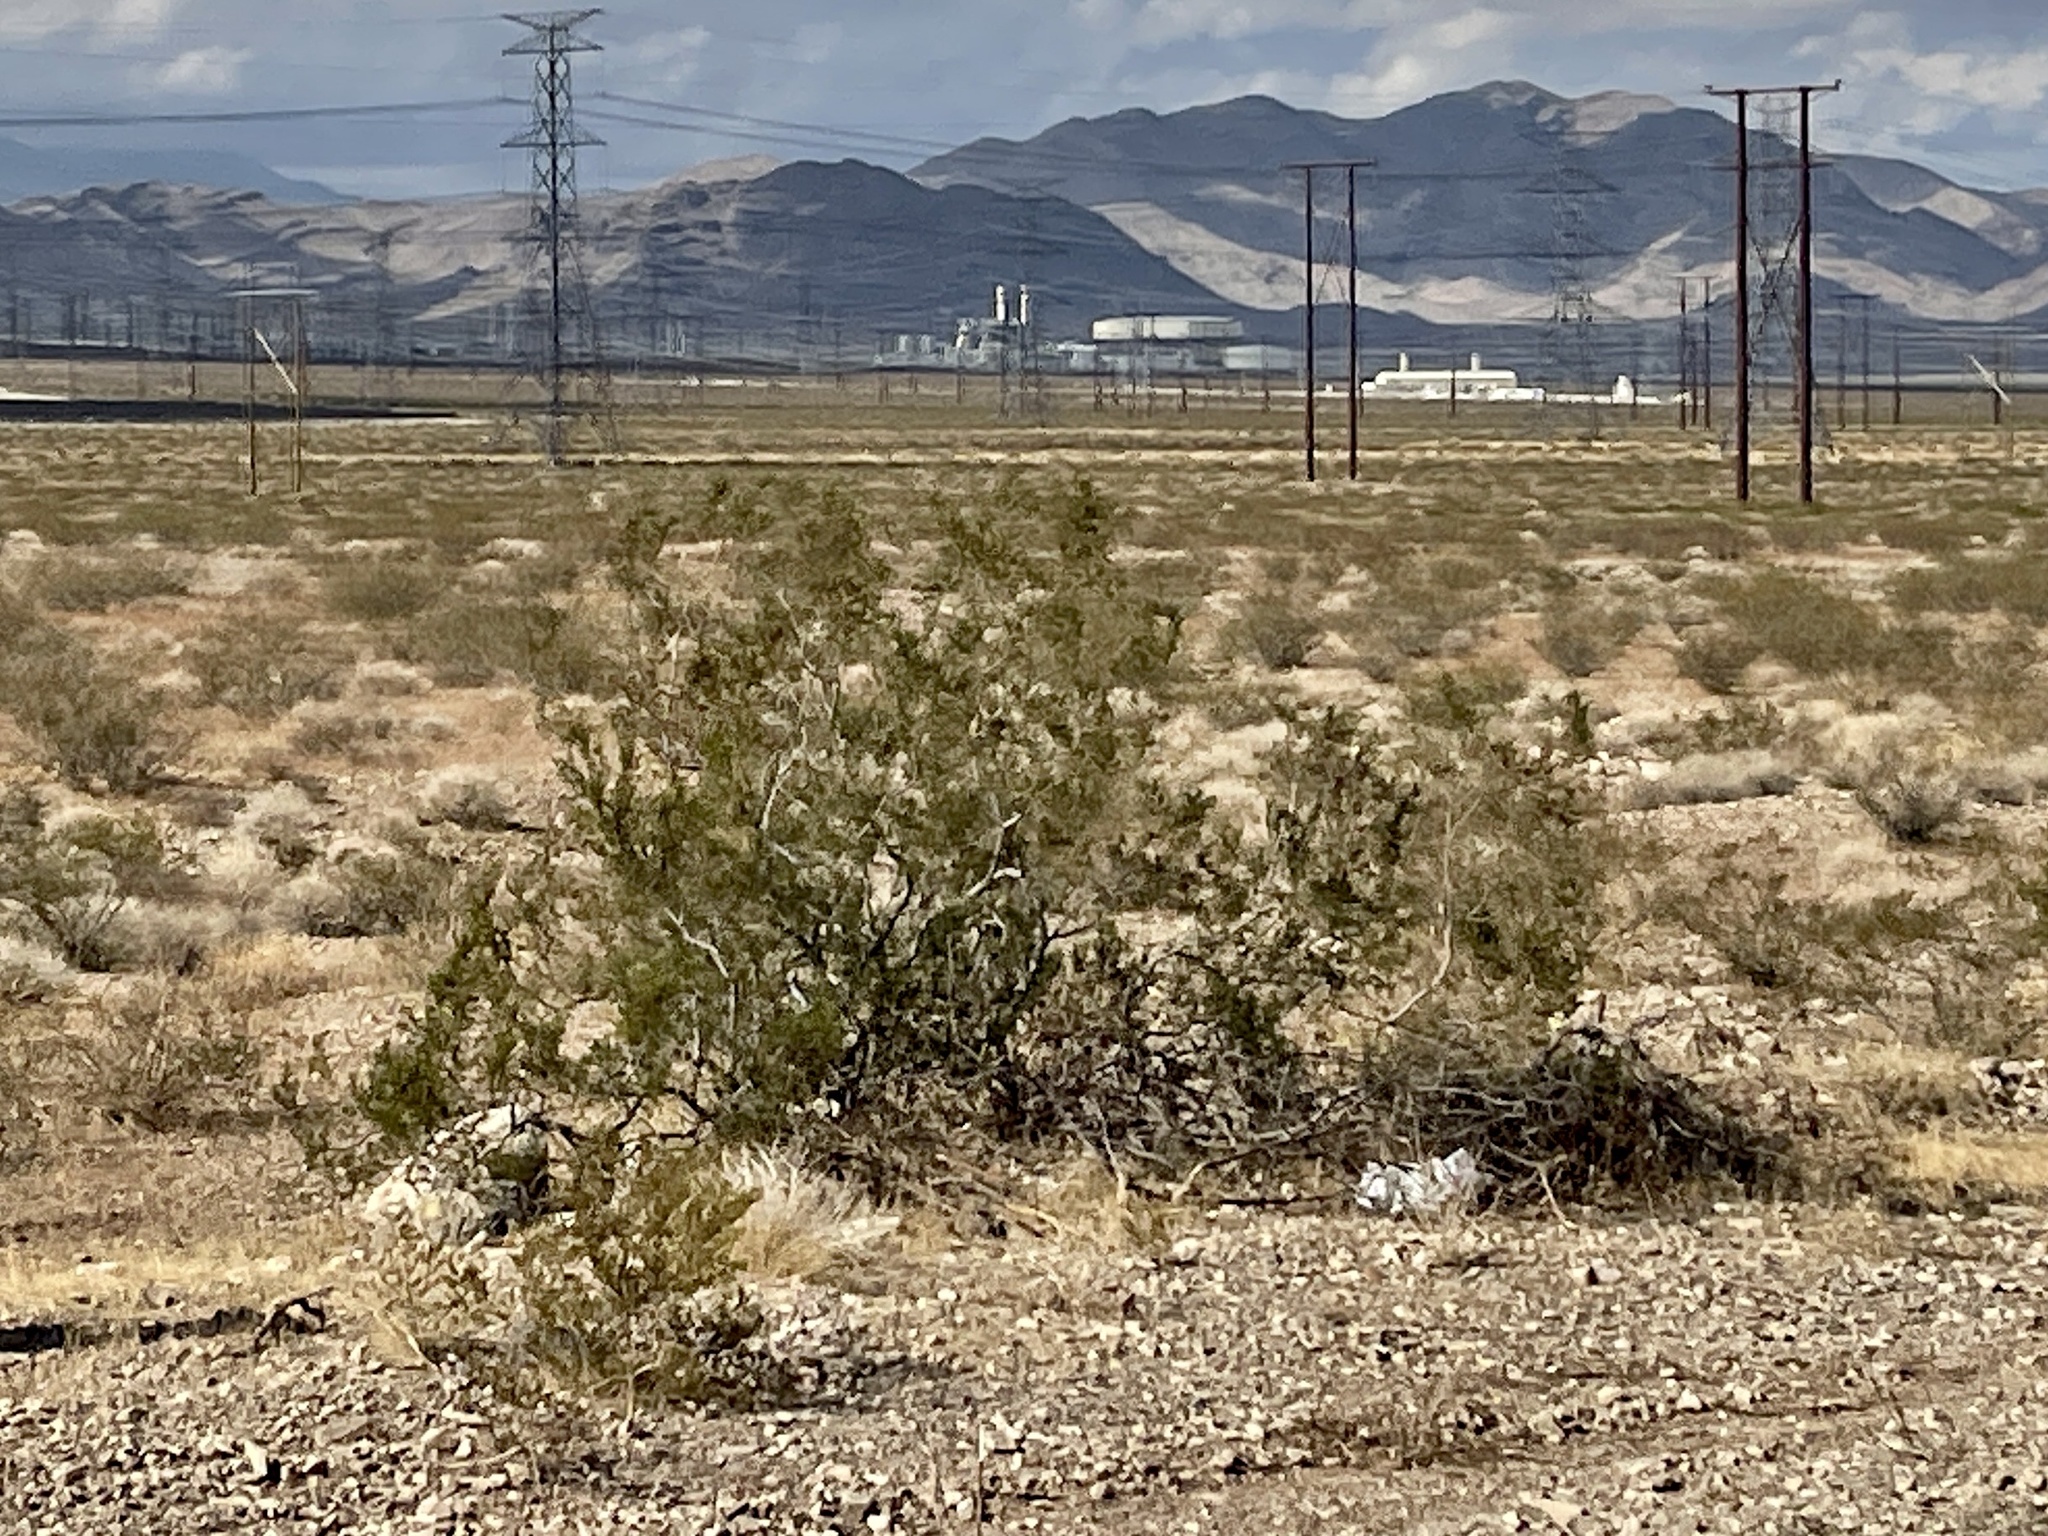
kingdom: Plantae
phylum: Tracheophyta
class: Magnoliopsida
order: Zygophyllales
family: Zygophyllaceae
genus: Larrea
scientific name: Larrea tridentata
